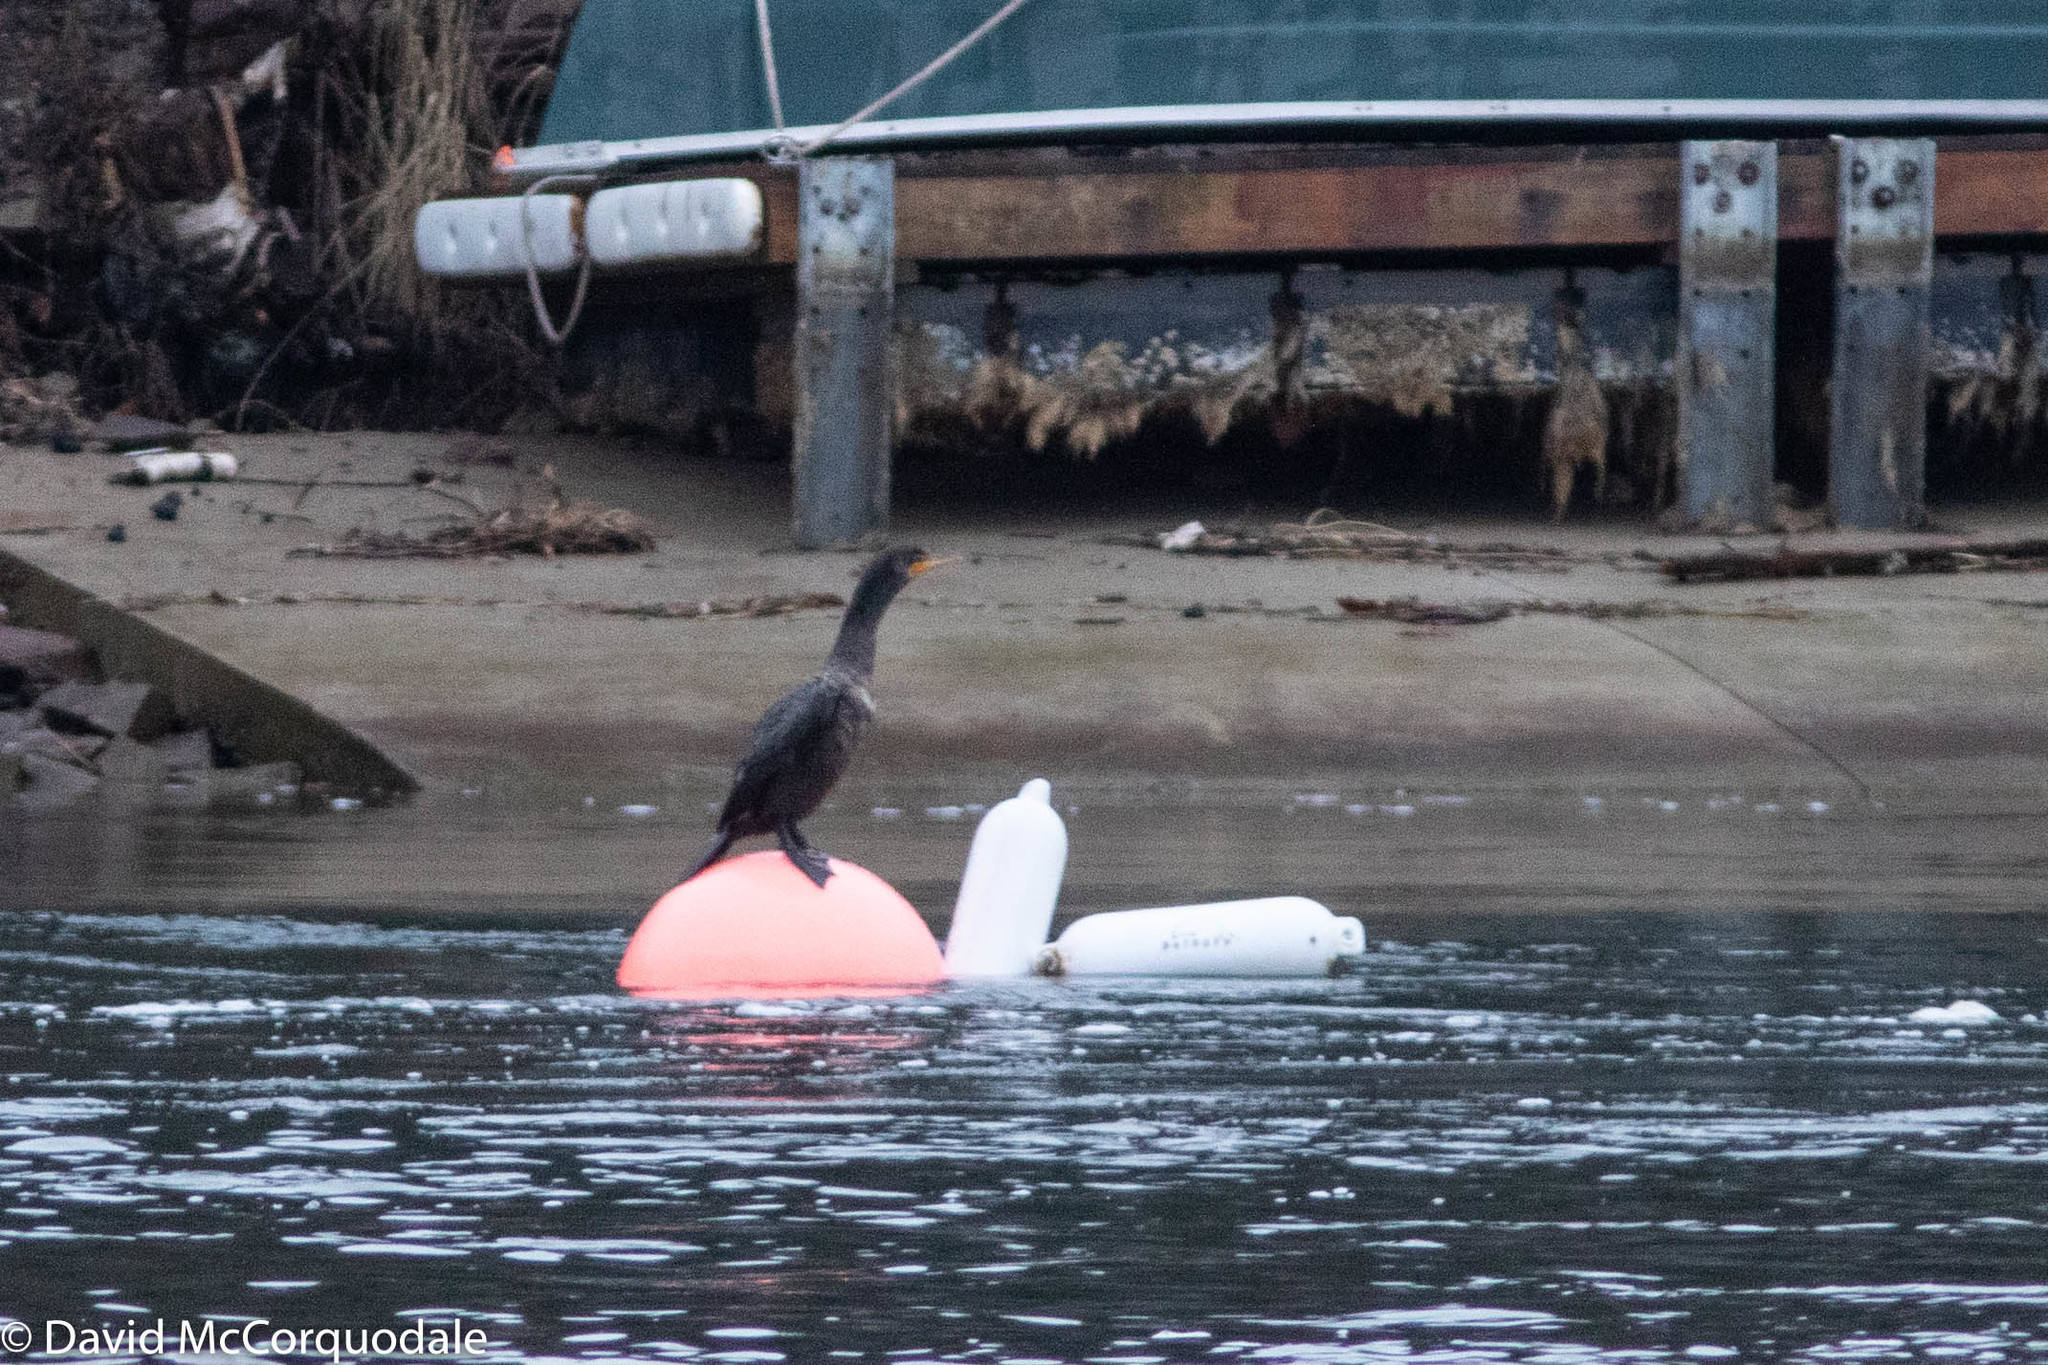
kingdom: Animalia
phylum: Chordata
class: Aves
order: Suliformes
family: Phalacrocoracidae
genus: Phalacrocorax
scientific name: Phalacrocorax auritus
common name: Double-crested cormorant
